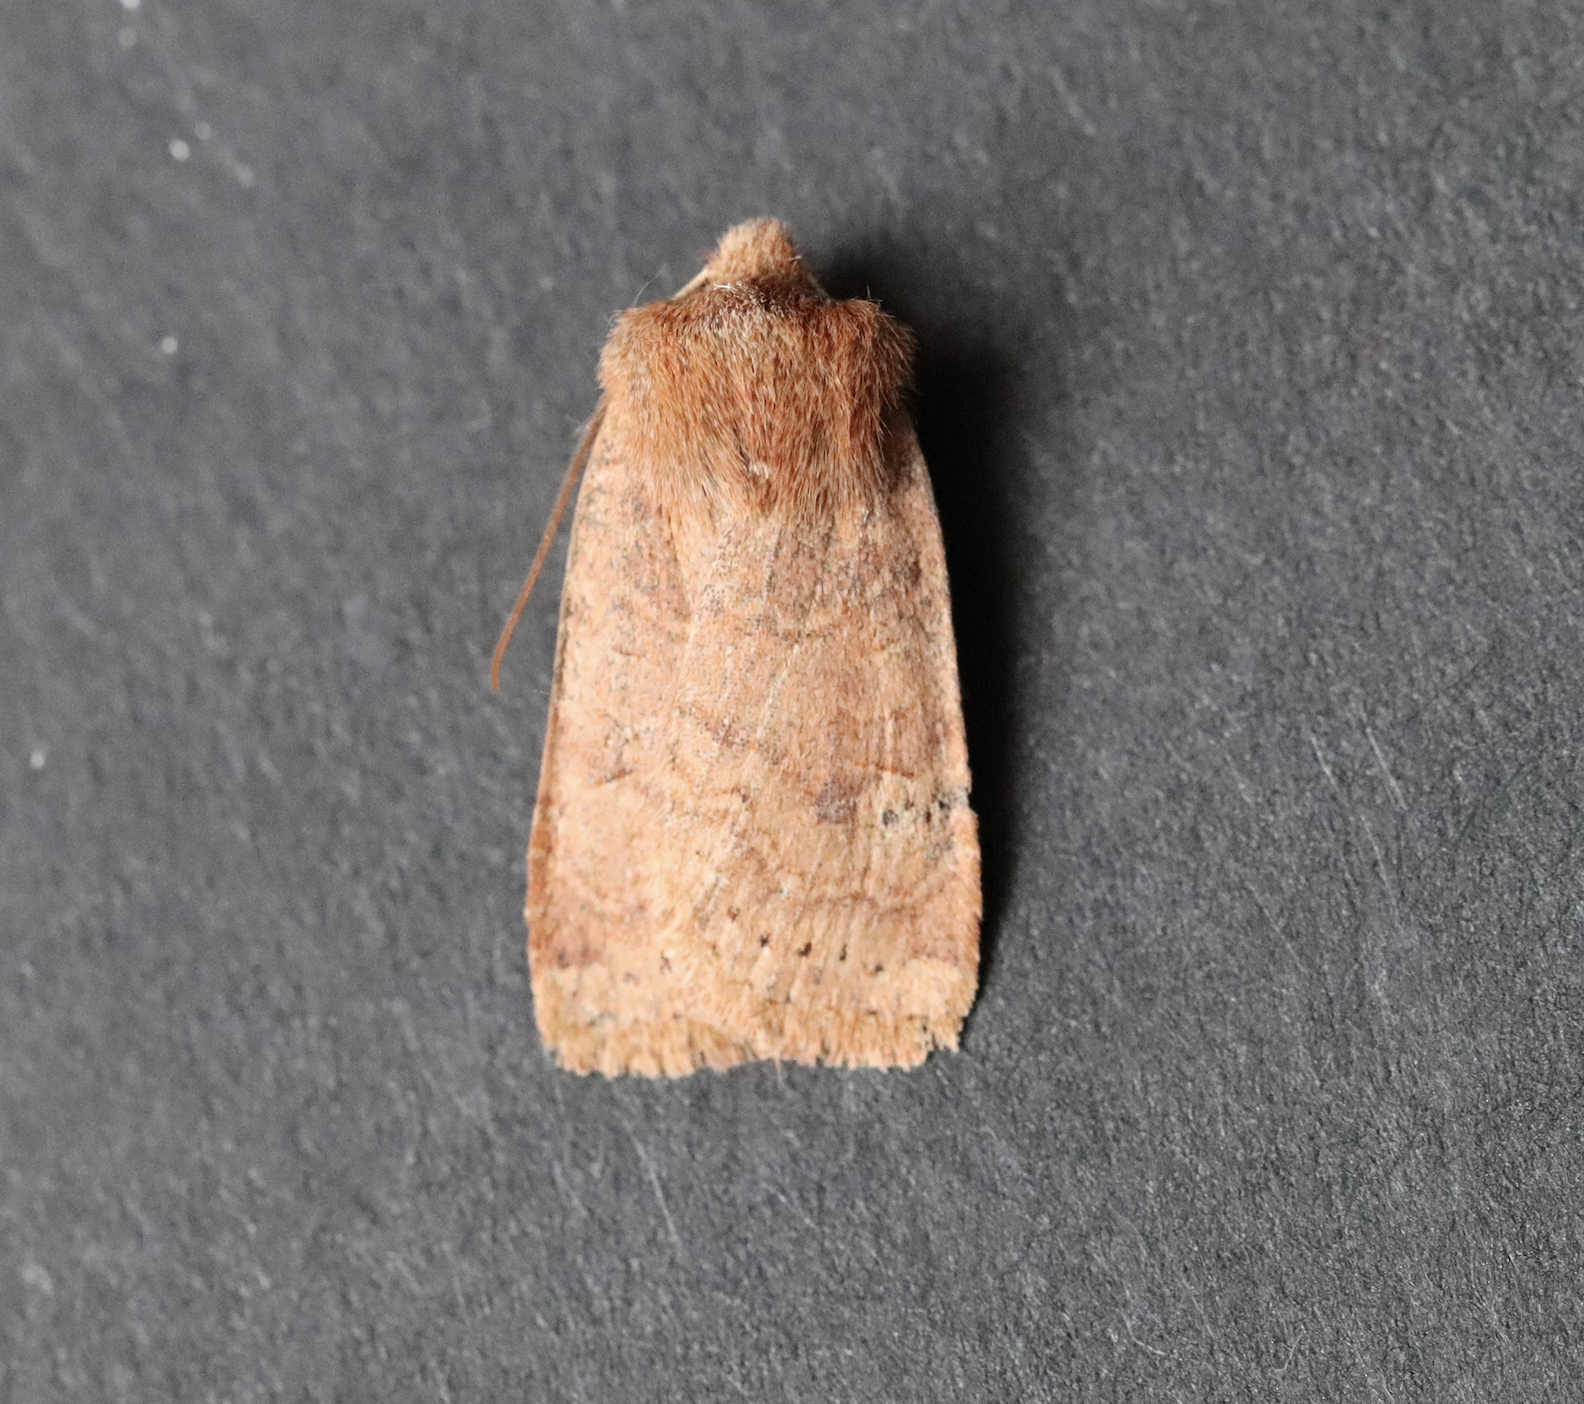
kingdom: Animalia
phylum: Arthropoda
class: Insecta
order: Lepidoptera
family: Noctuidae
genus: Conistra
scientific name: Conistra vaccinii
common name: Chestnut
